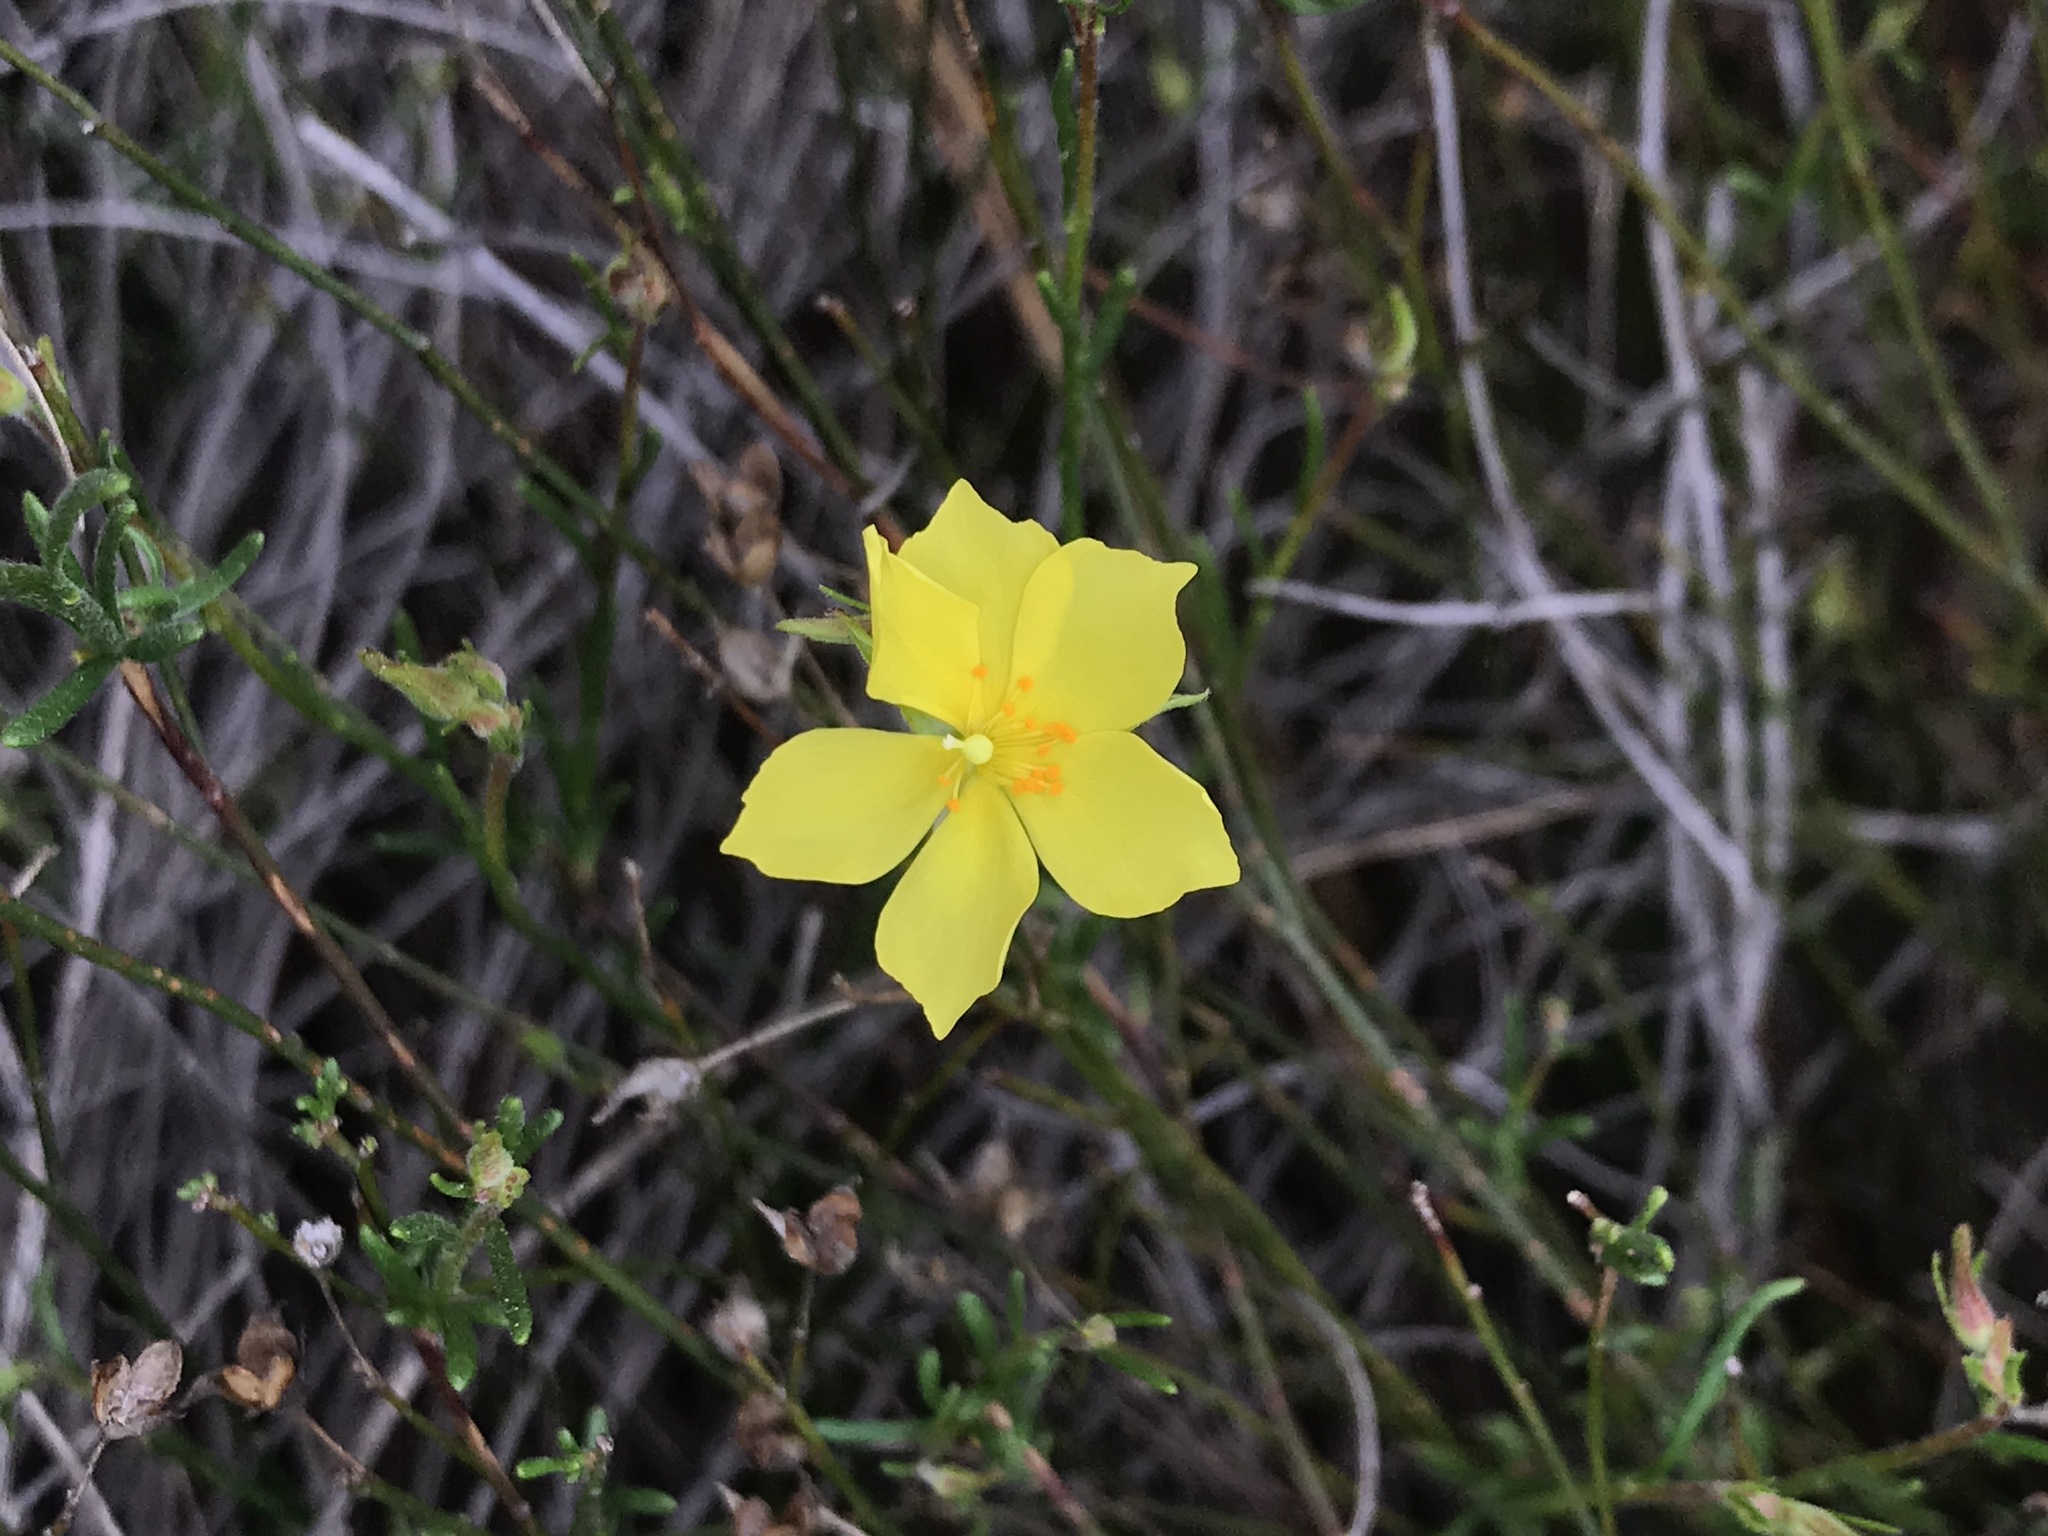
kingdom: Plantae
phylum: Tracheophyta
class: Magnoliopsida
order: Malvales
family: Cistaceae
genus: Crocanthemum
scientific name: Crocanthemum scoparium
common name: Broom-rose
